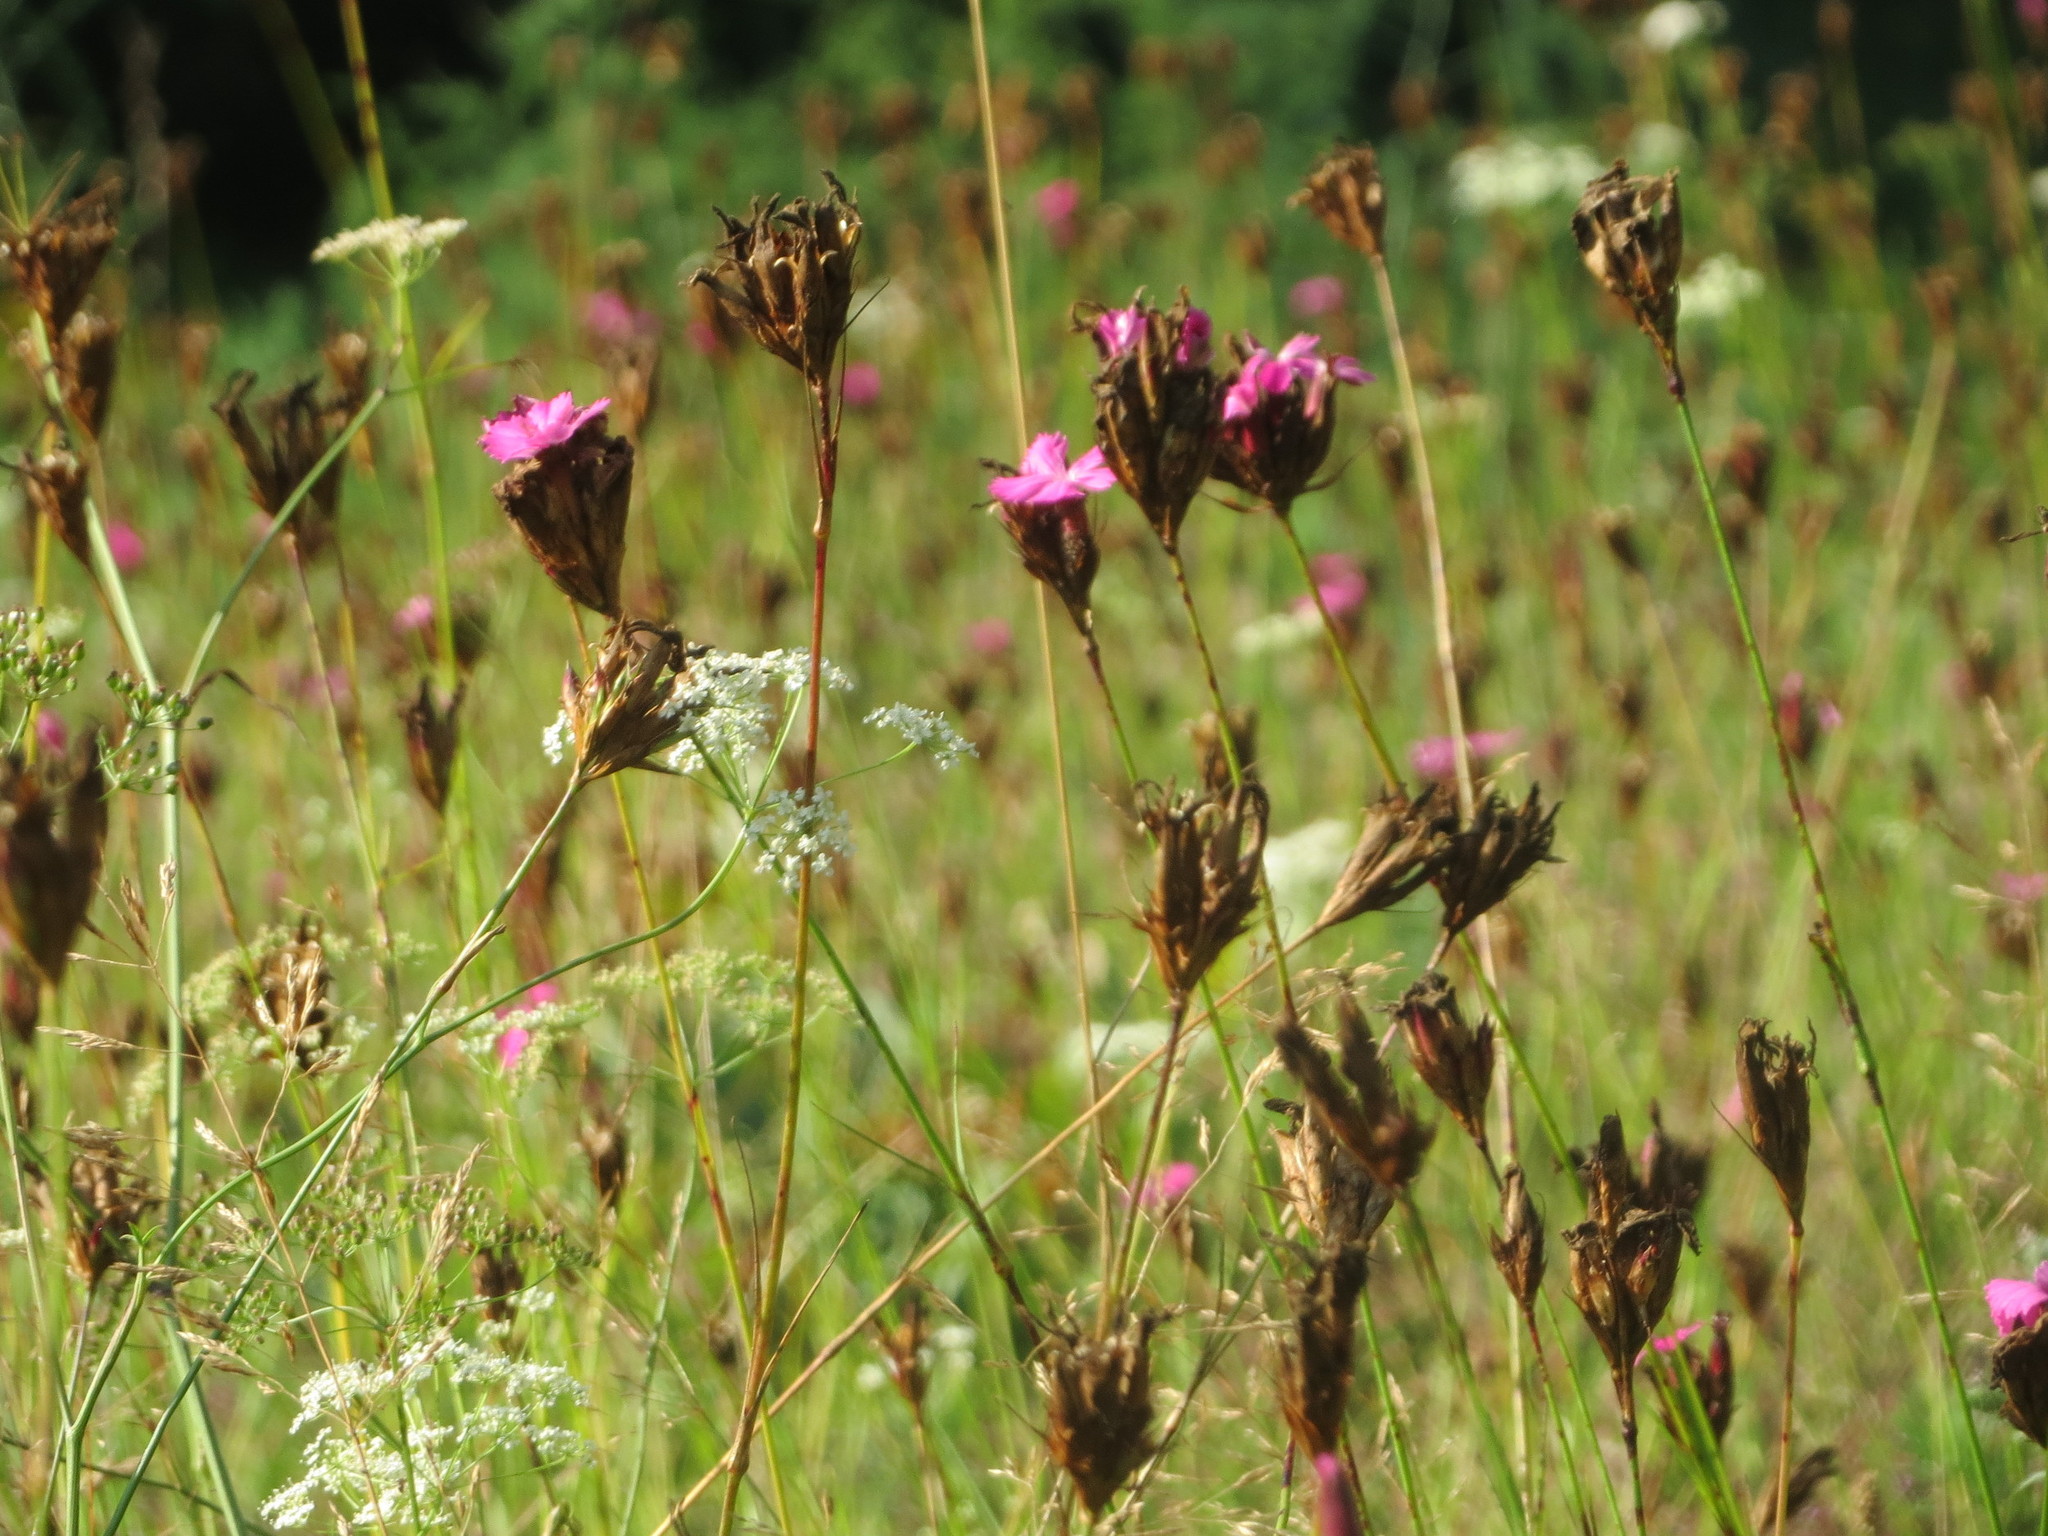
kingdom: Plantae
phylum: Tracheophyta
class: Magnoliopsida
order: Caryophyllales
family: Caryophyllaceae
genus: Dianthus
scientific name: Dianthus carthusianorum
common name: Carthusian pink
